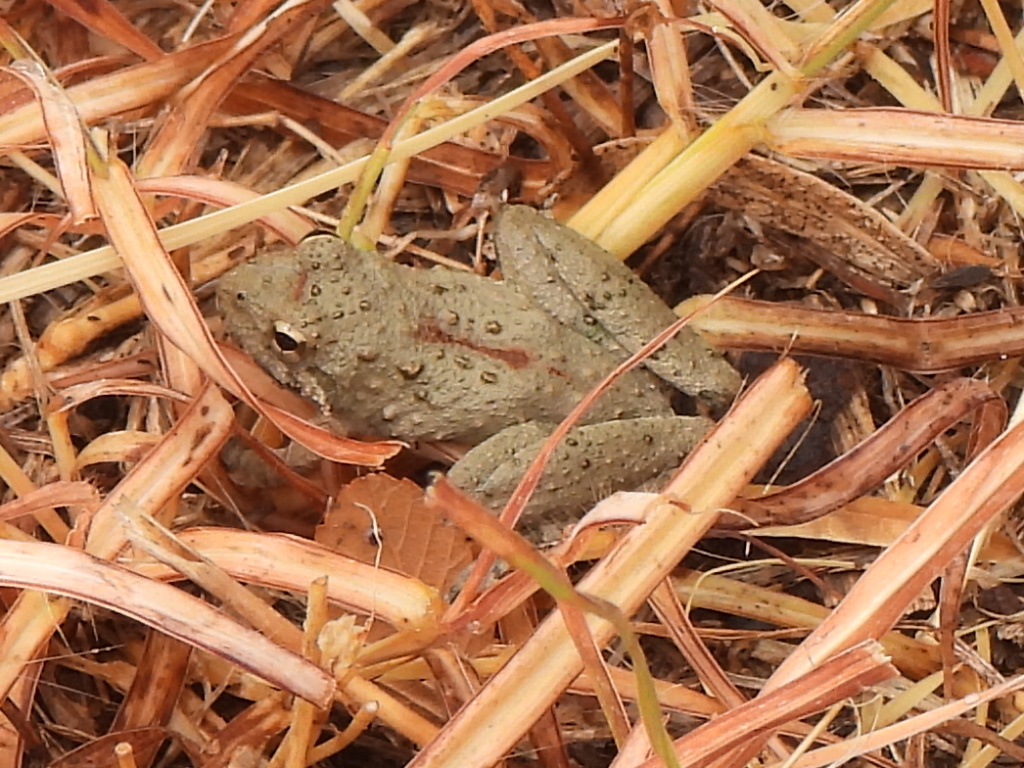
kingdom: Animalia
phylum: Chordata
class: Amphibia
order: Anura
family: Hylidae
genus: Acris
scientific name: Acris blanchardi
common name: Blanchard's cricket frog
